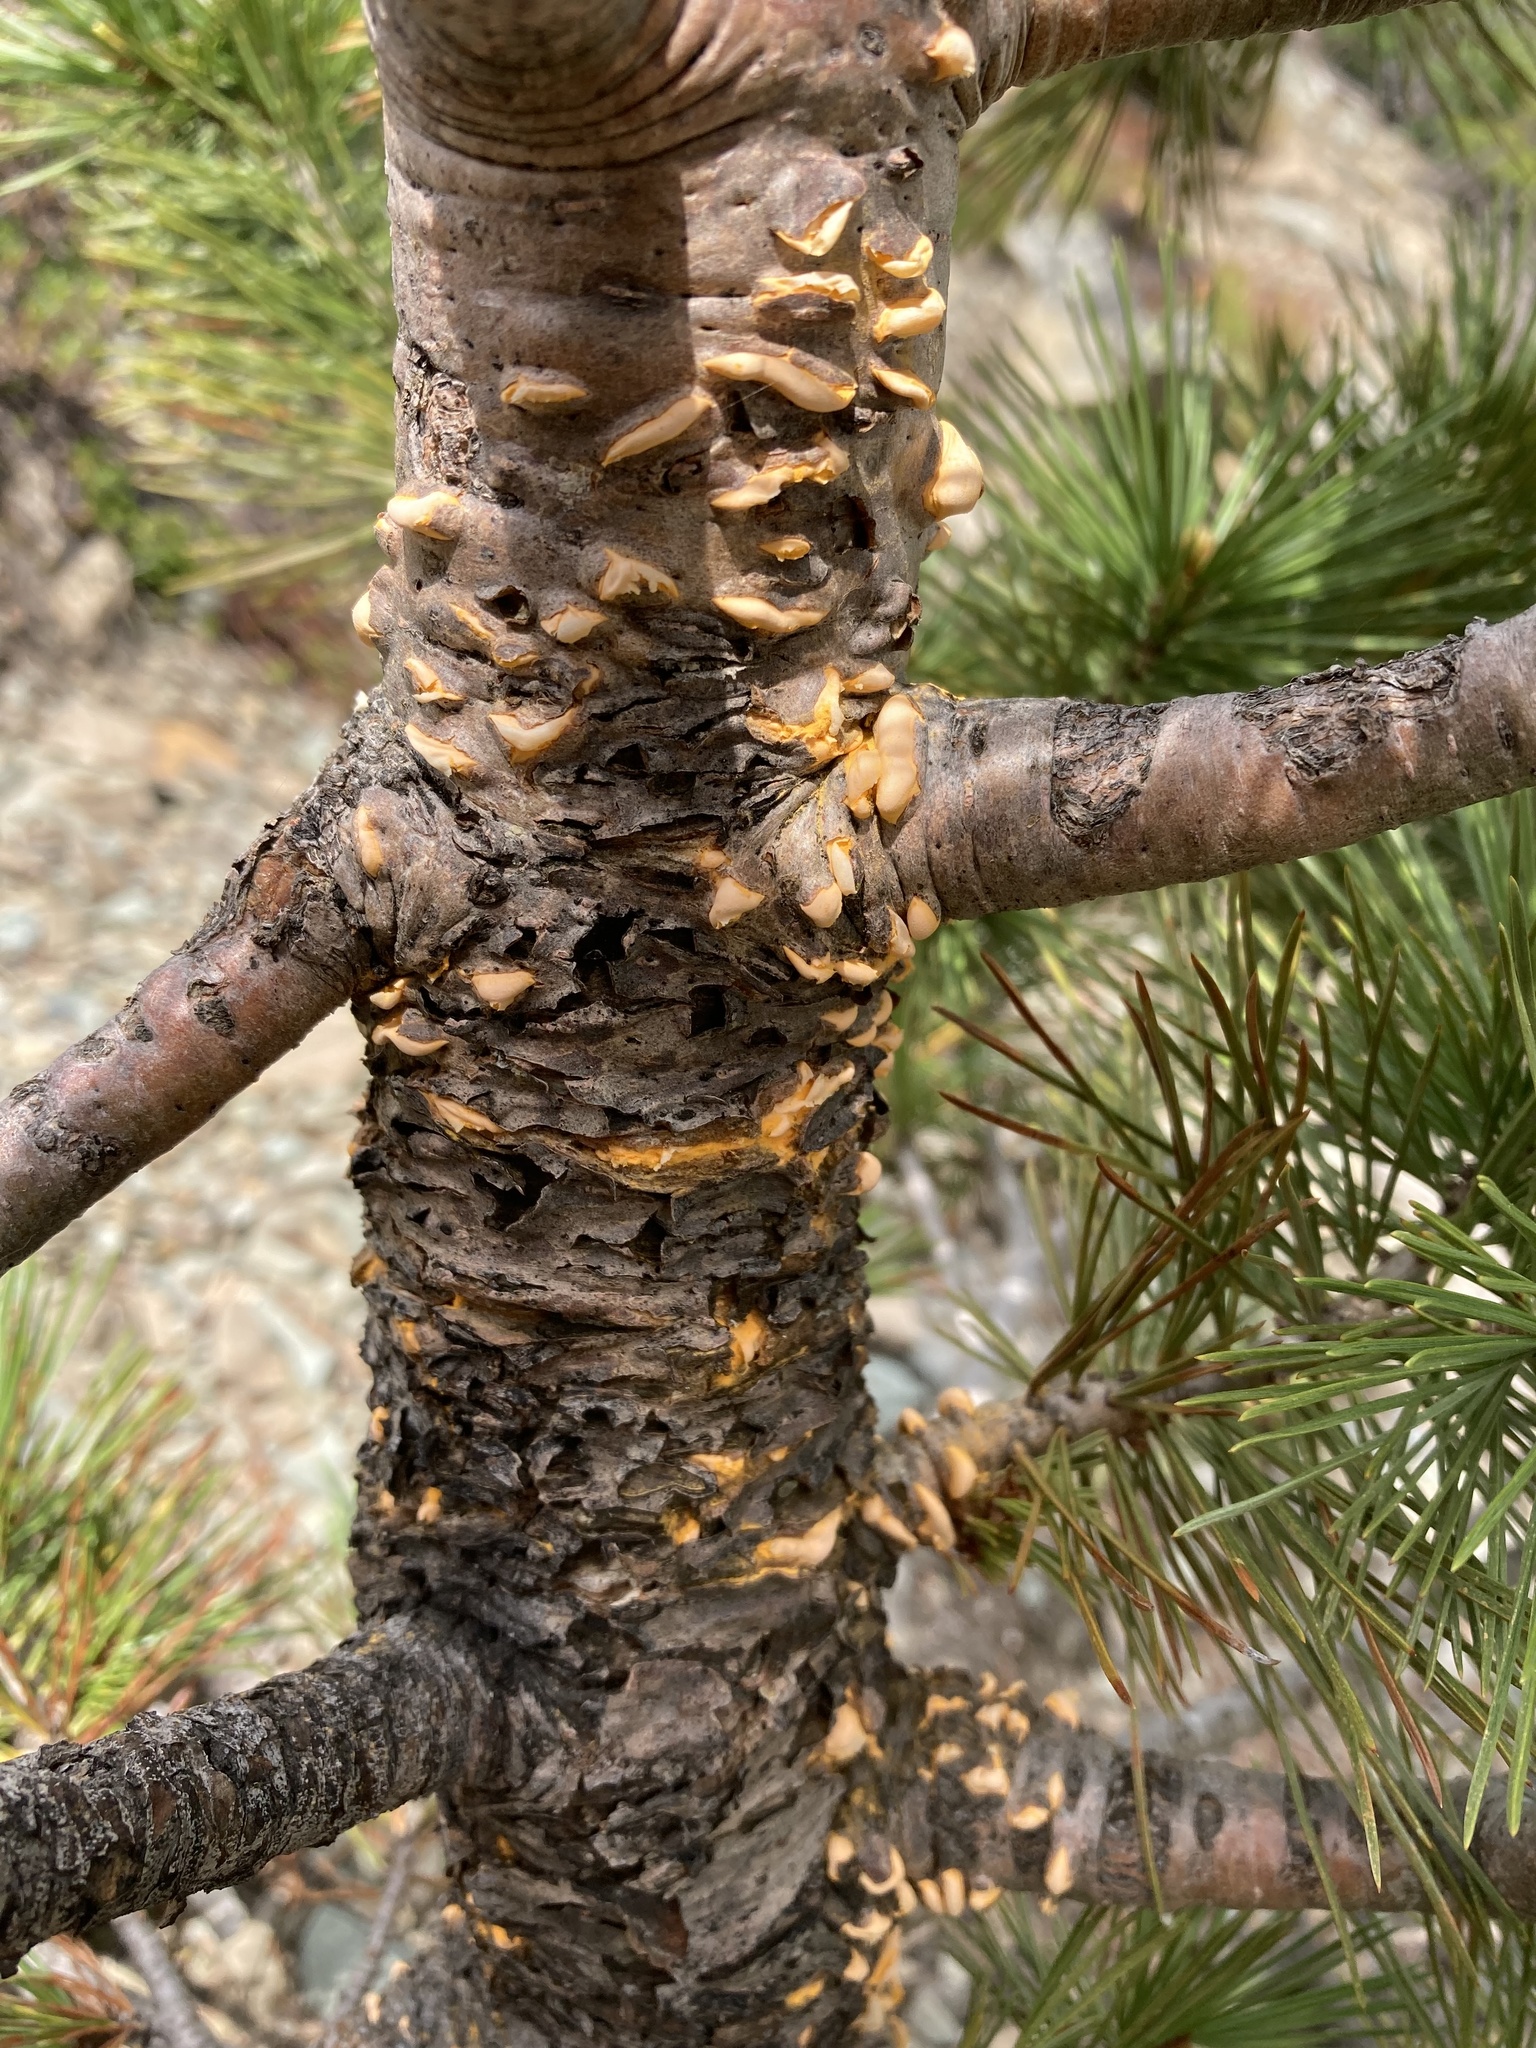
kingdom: Fungi
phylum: Basidiomycota
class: Pucciniomycetes
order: Pucciniales
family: Cronartiaceae
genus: Cronartium
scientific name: Cronartium ribicola
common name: White pine blister rust
